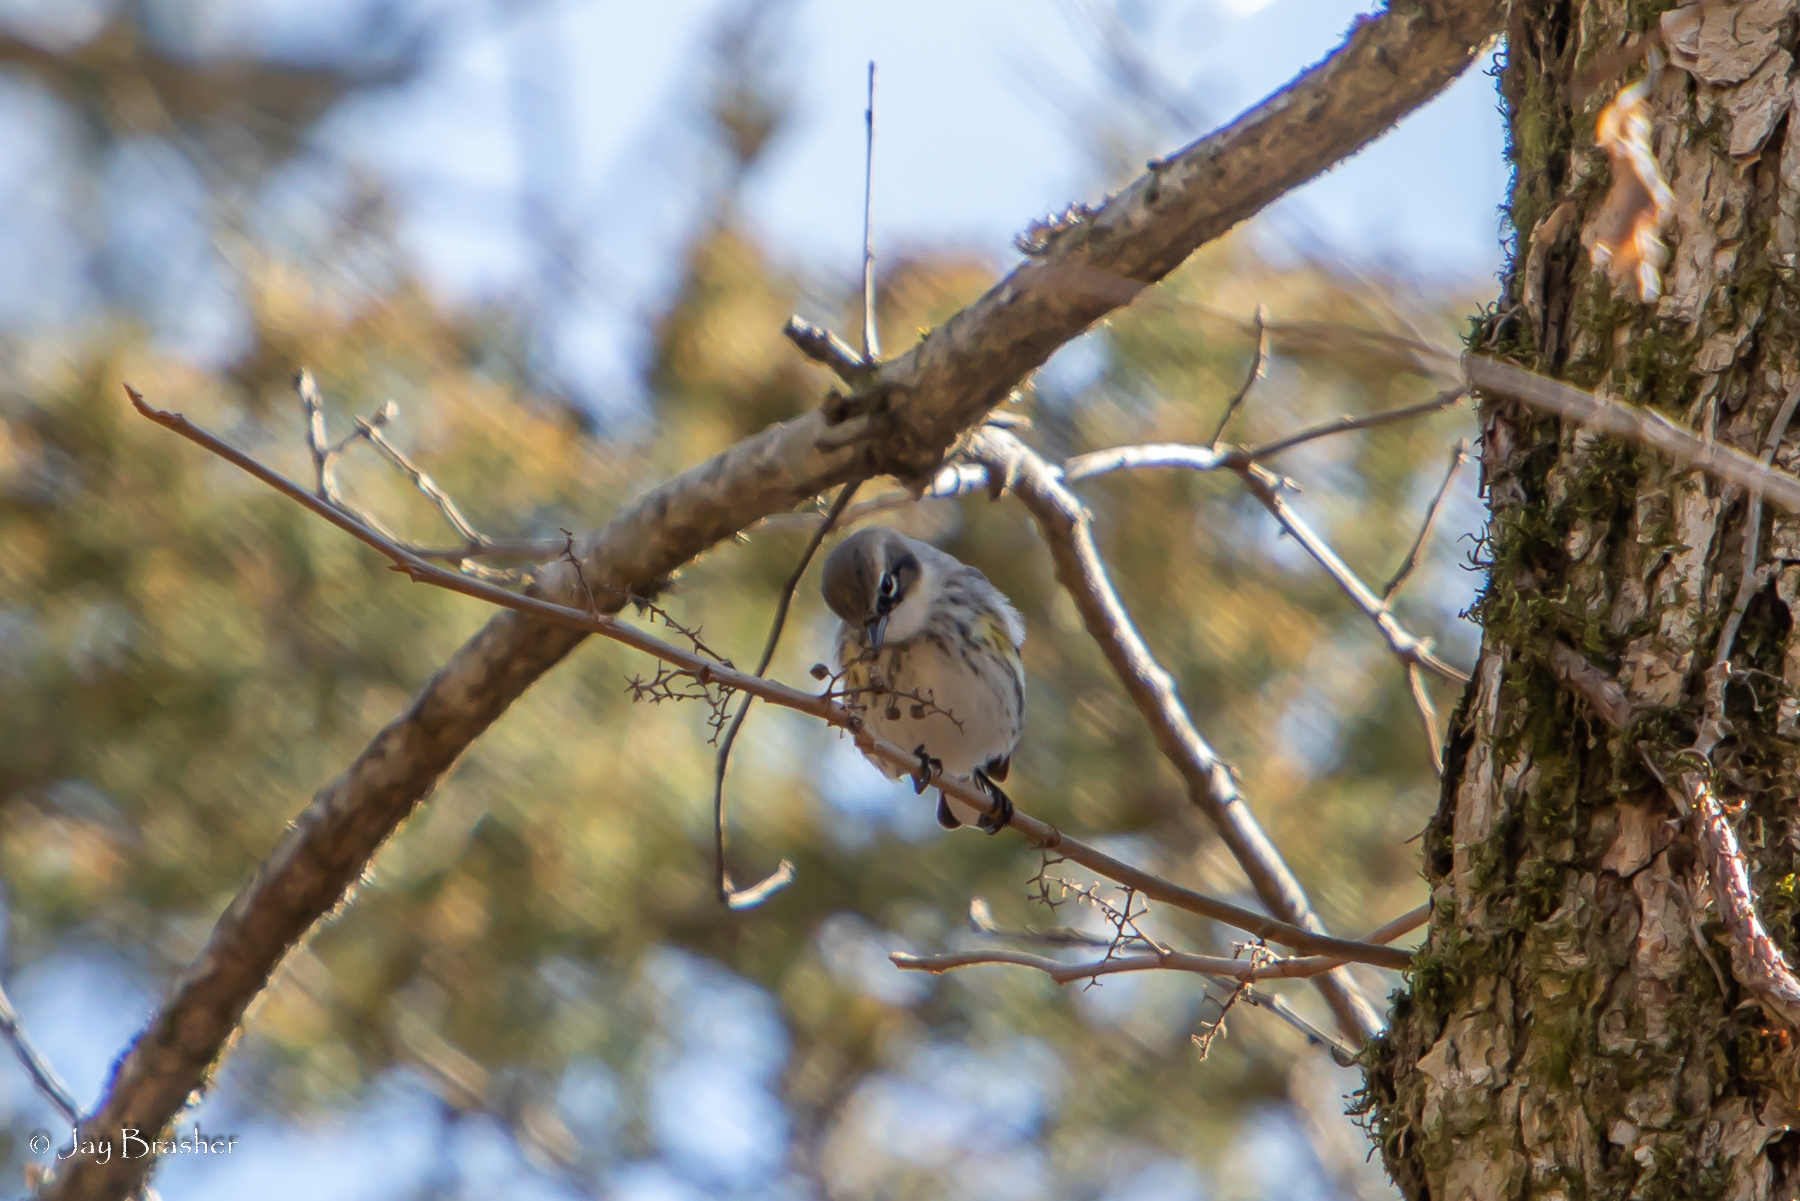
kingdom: Animalia
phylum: Chordata
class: Aves
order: Passeriformes
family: Parulidae
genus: Setophaga
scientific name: Setophaga coronata
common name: Myrtle warbler
